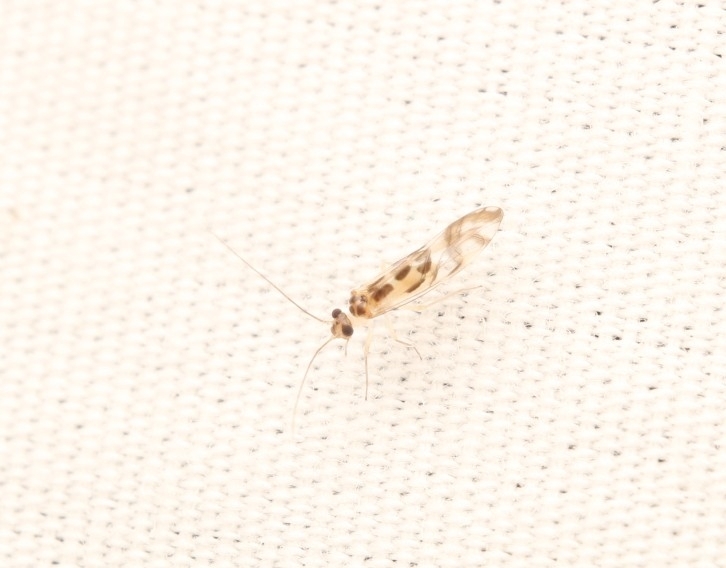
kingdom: Animalia
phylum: Arthropoda
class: Insecta
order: Psocodea
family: Stenopsocidae
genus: Graphopsocus
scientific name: Graphopsocus cruciatus
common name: Lizard bark louse
